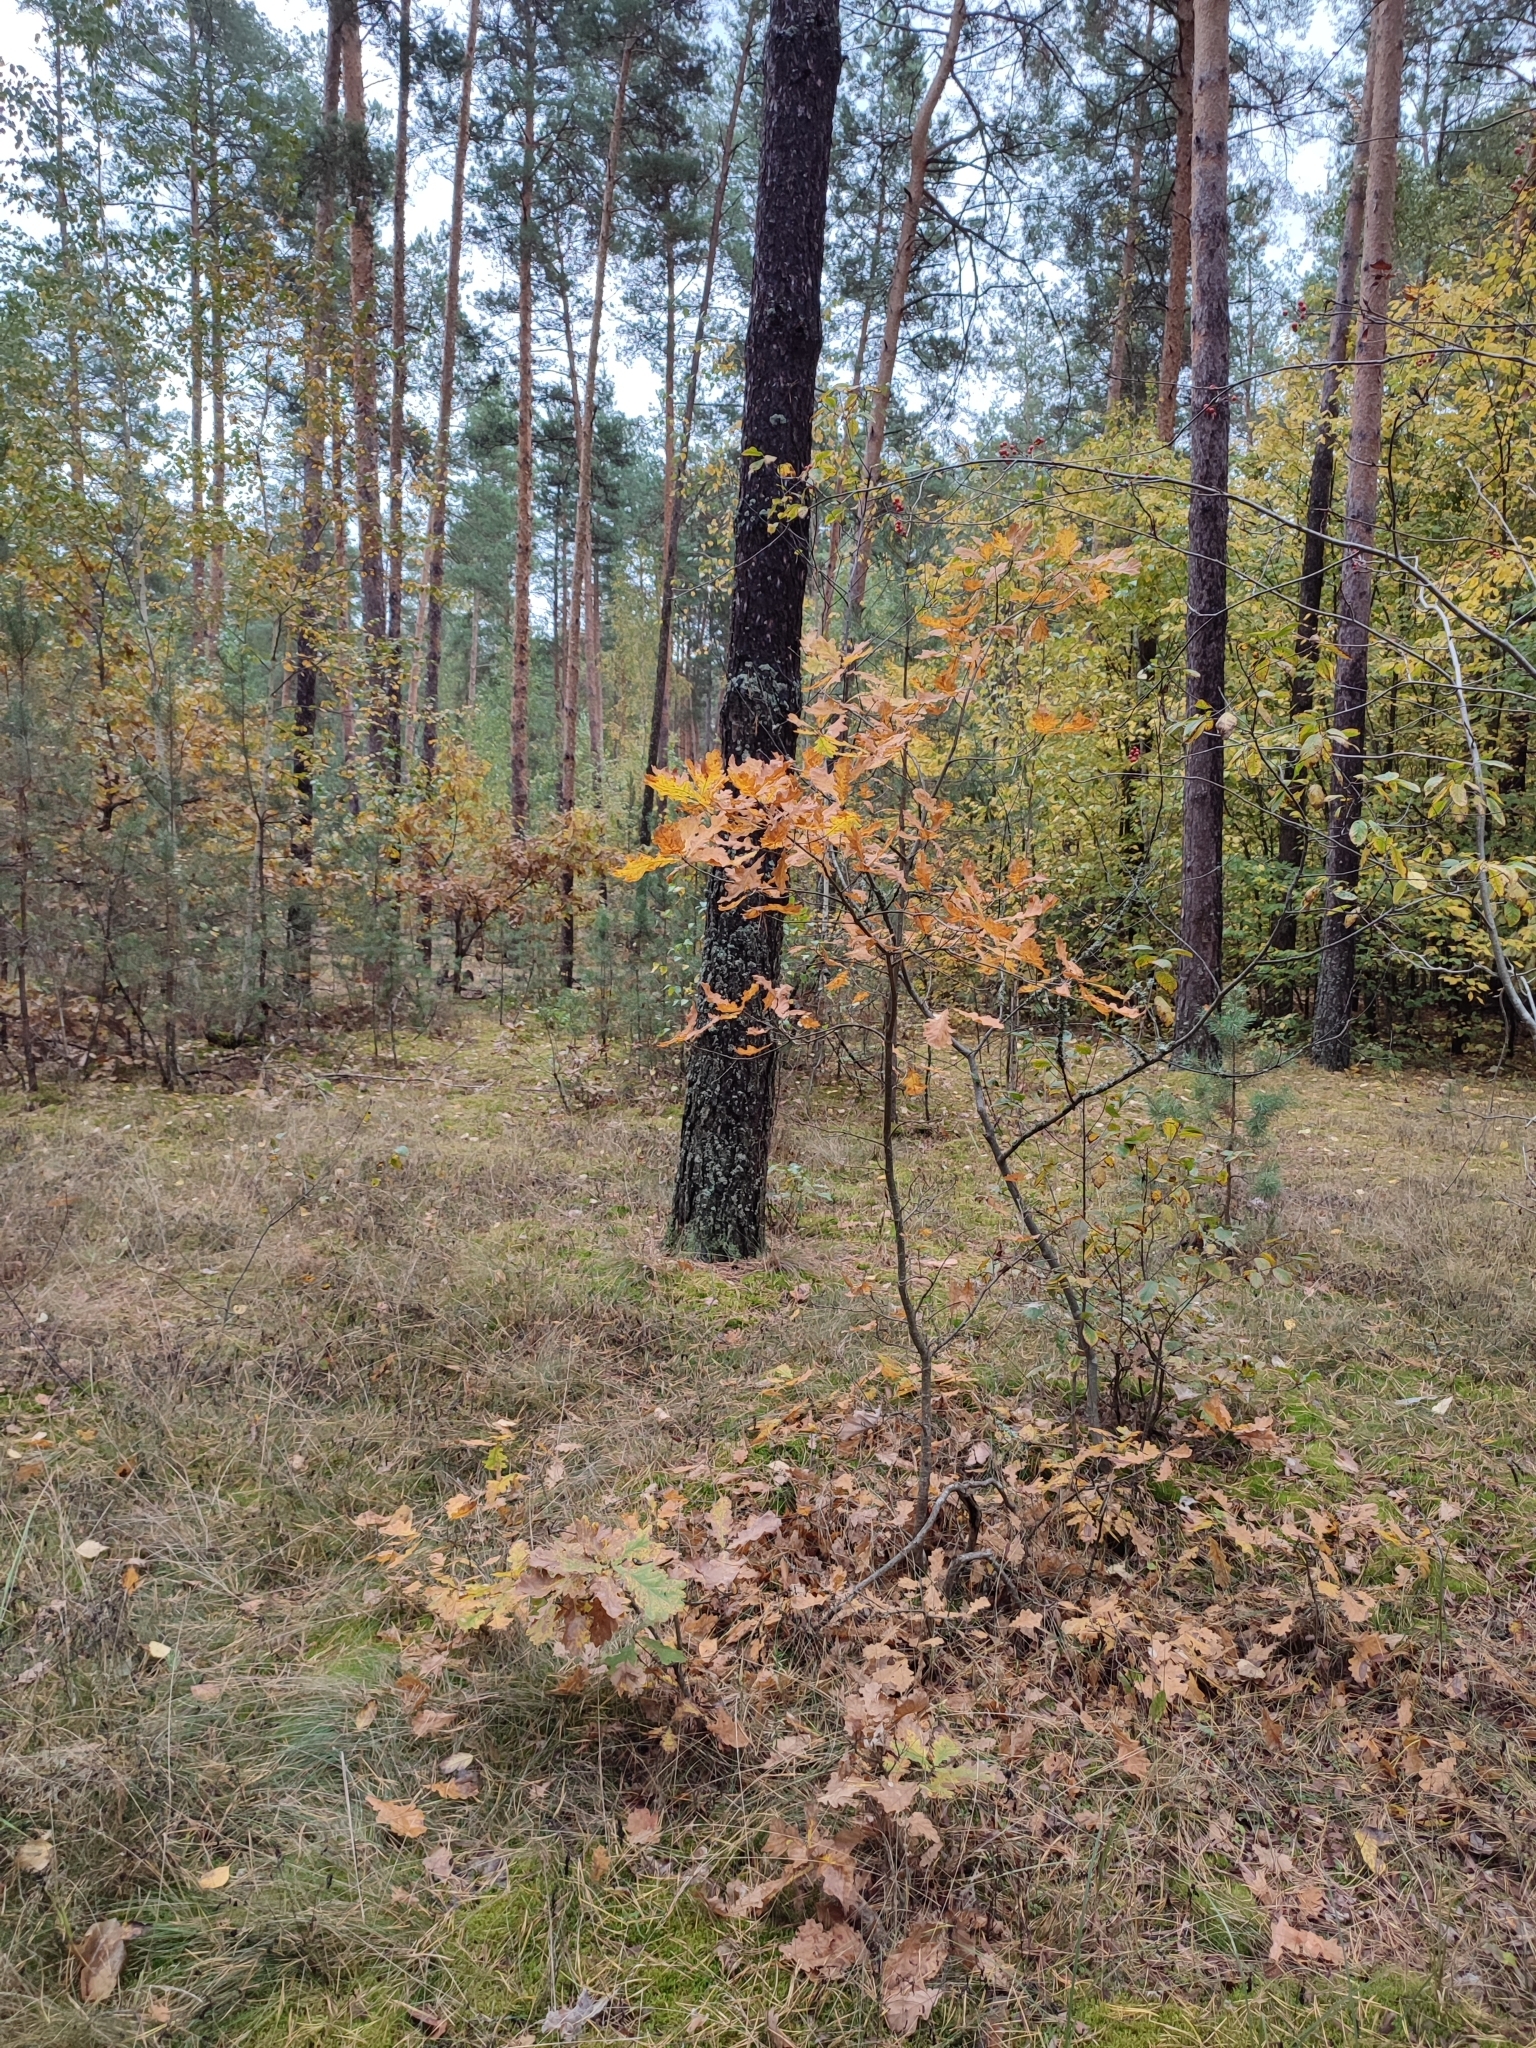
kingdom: Plantae
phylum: Tracheophyta
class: Magnoliopsida
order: Fagales
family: Fagaceae
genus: Quercus
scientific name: Quercus robur
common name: Pedunculate oak
